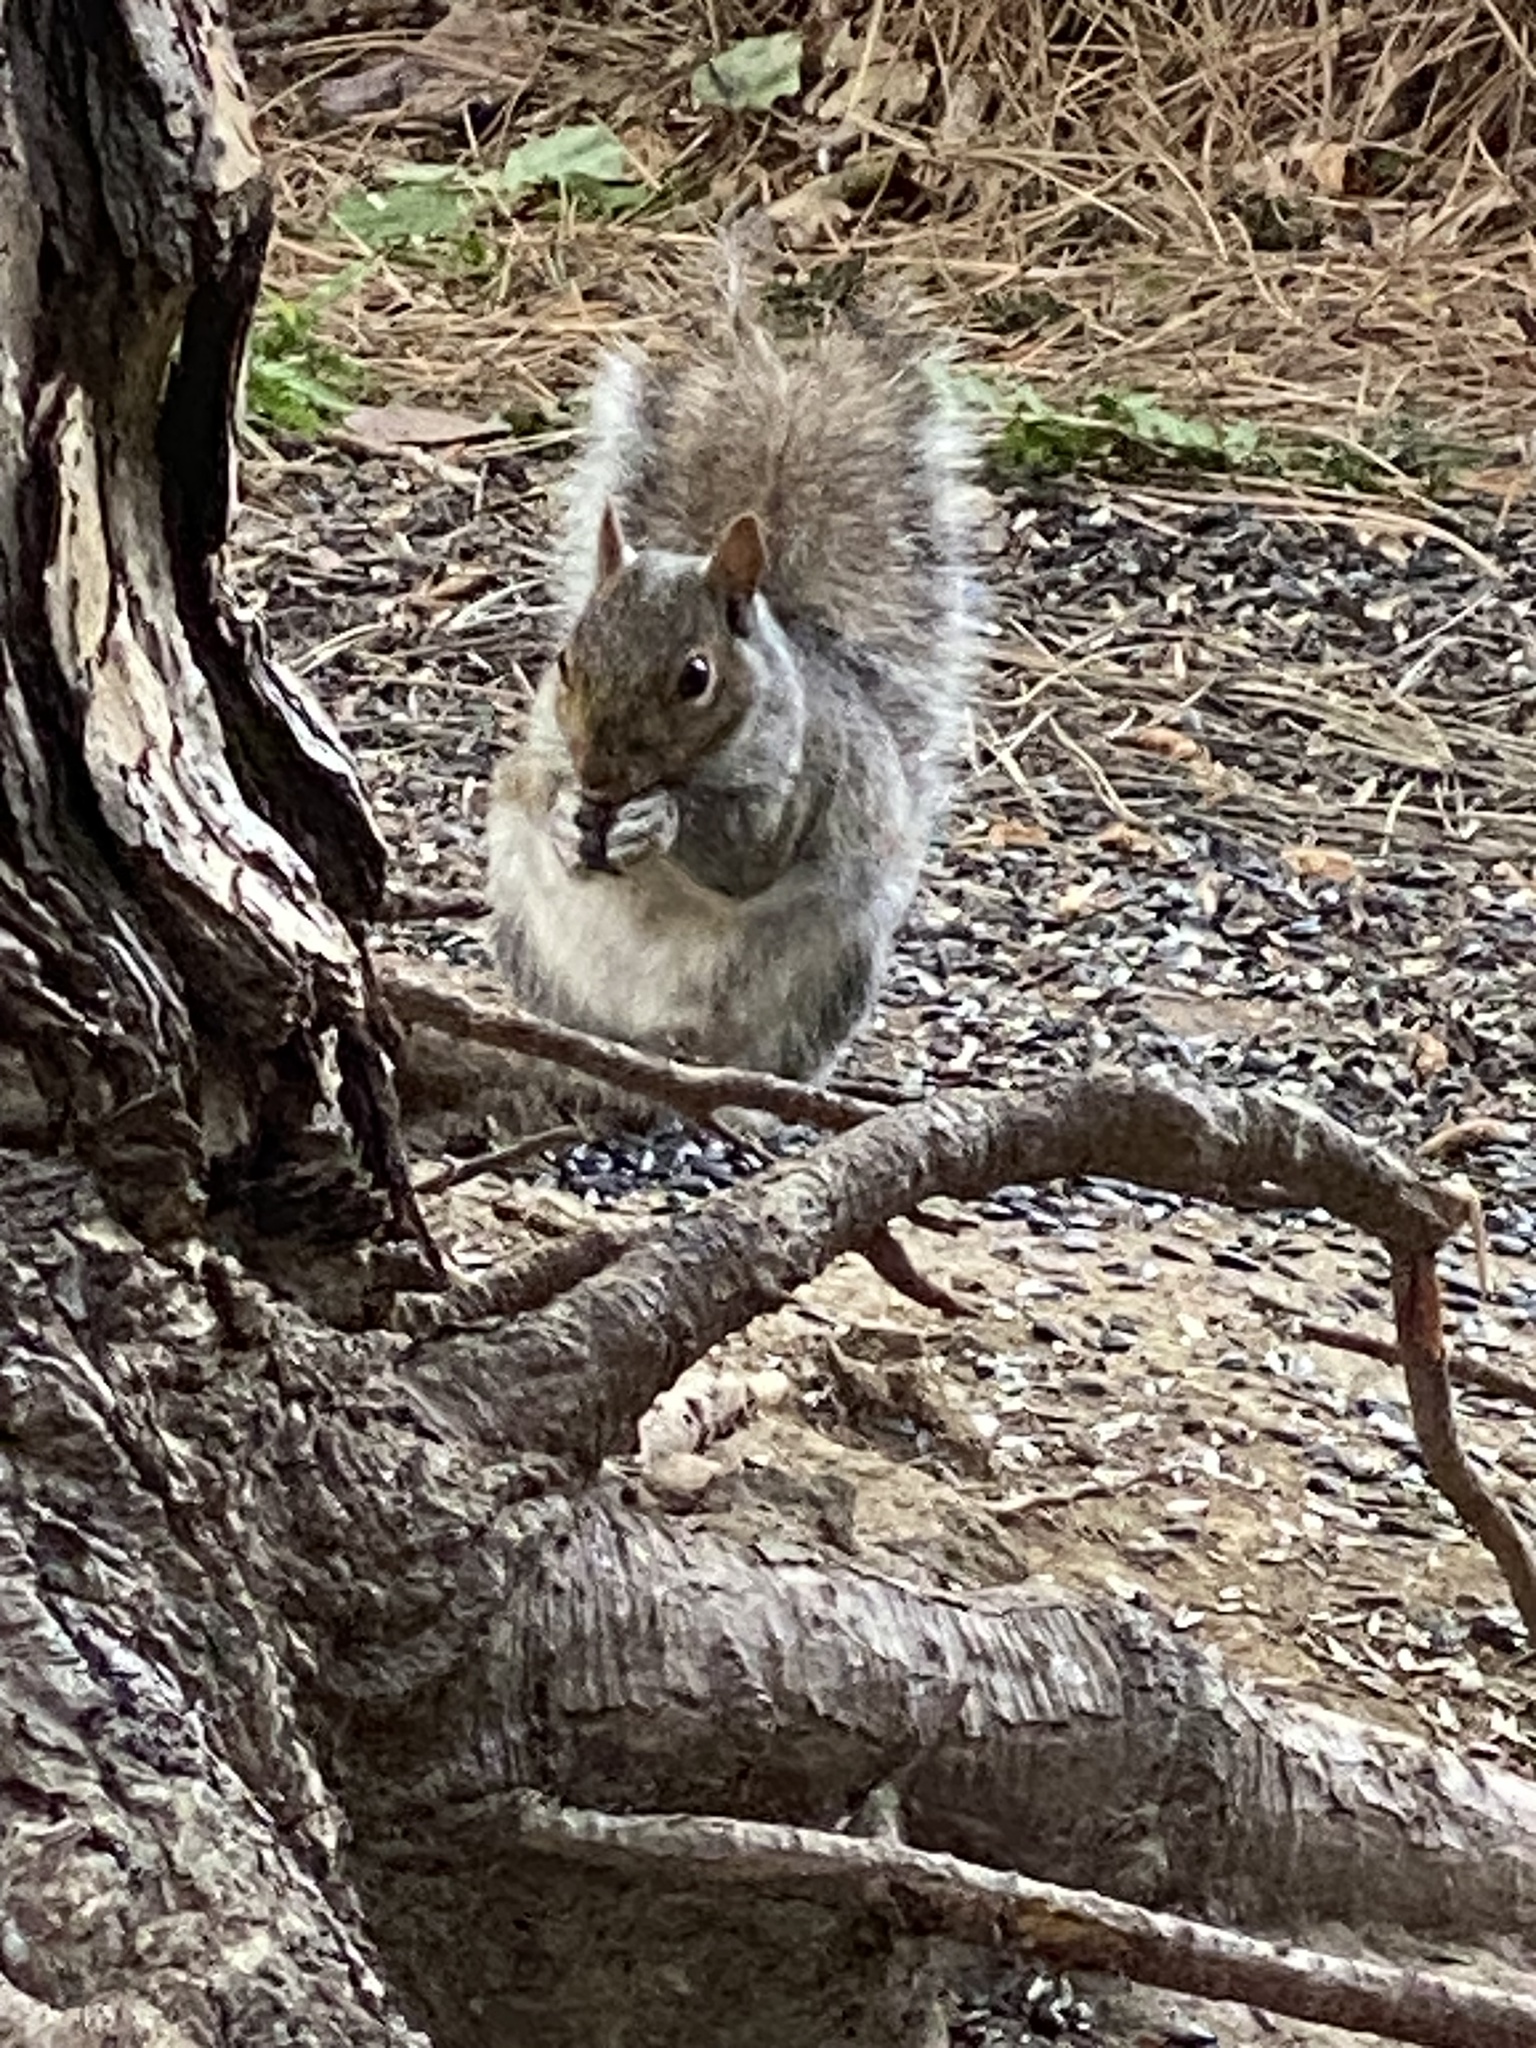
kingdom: Animalia
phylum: Chordata
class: Mammalia
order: Rodentia
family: Sciuridae
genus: Sciurus
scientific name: Sciurus carolinensis
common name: Eastern gray squirrel
